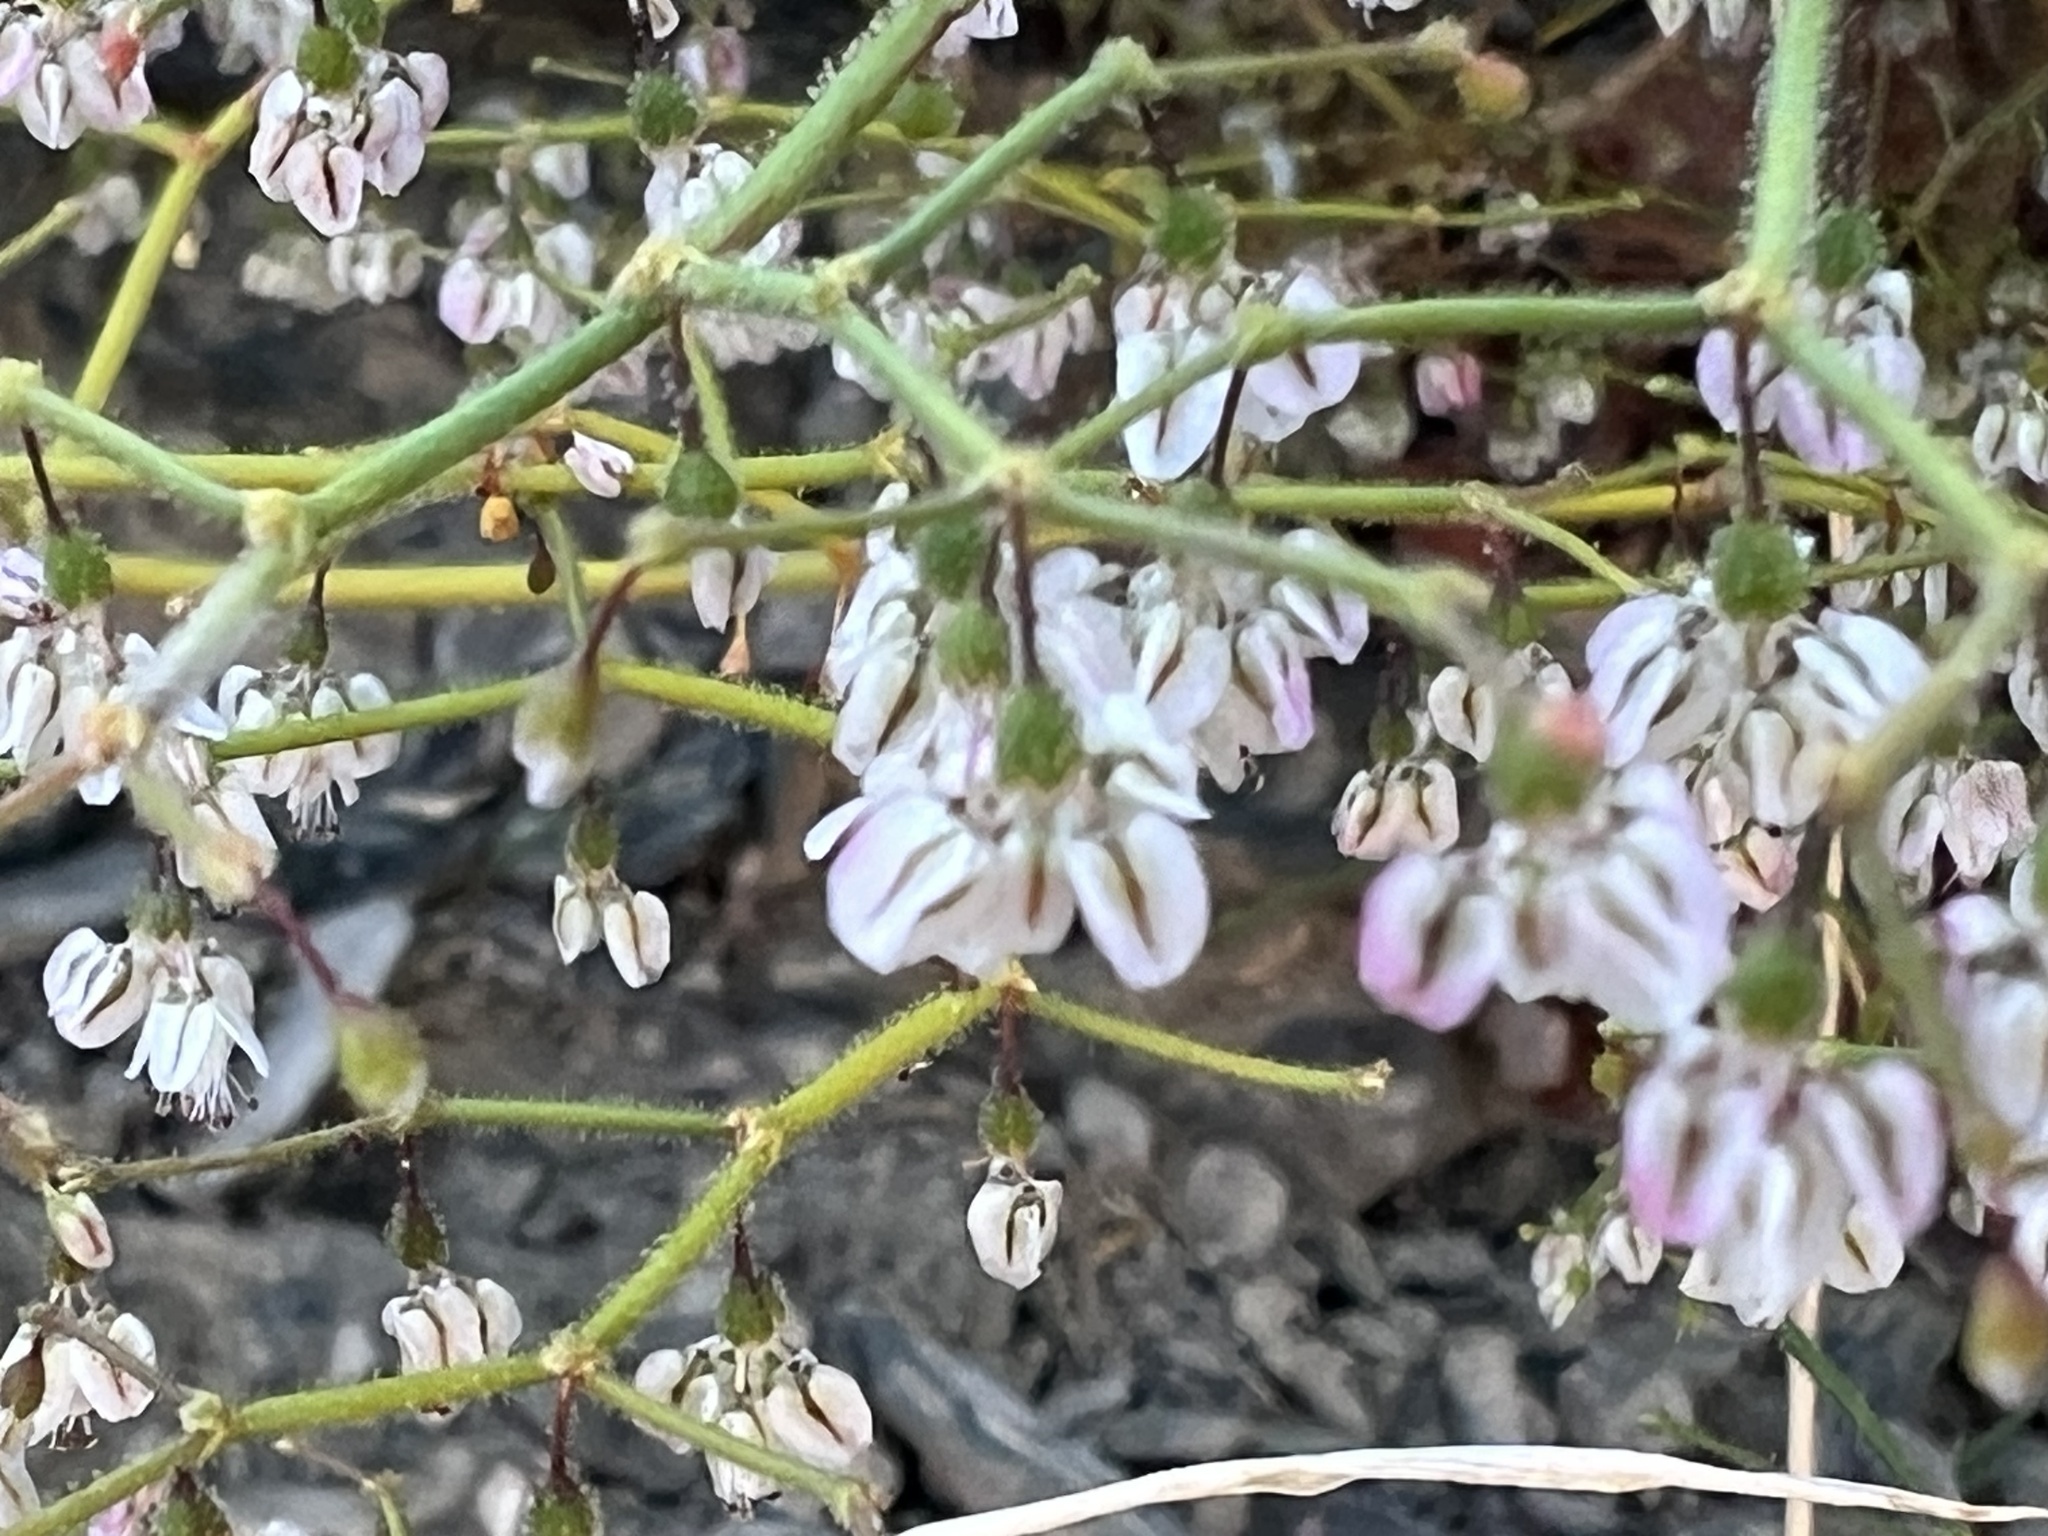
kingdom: Plantae
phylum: Tracheophyta
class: Magnoliopsida
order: Caryophyllales
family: Polygonaceae
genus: Eriogonum
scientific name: Eriogonum brachypodum
